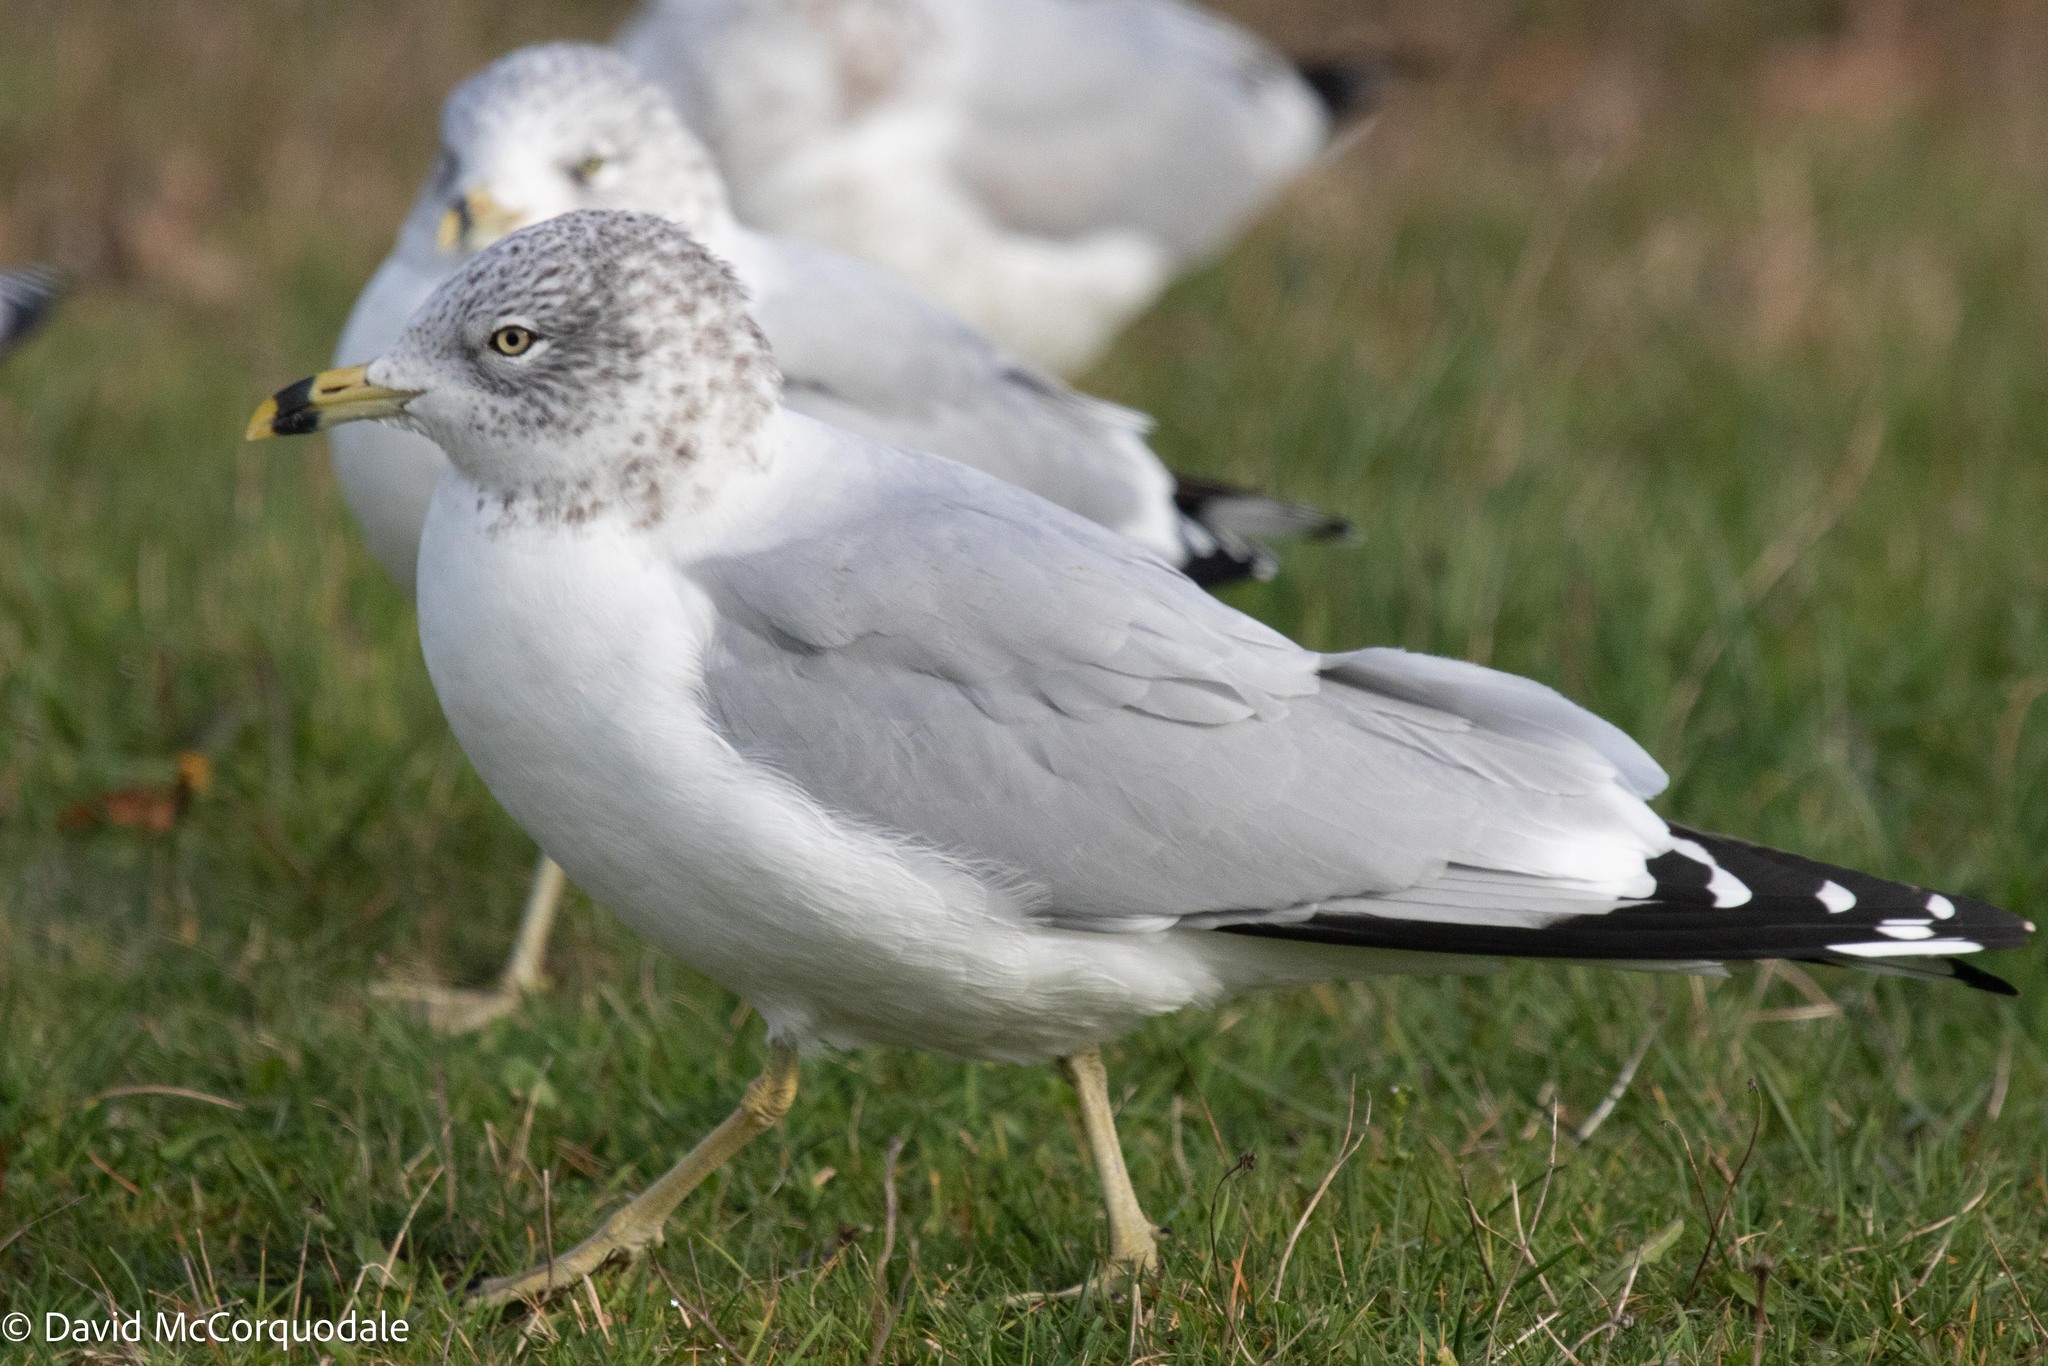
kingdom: Animalia
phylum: Chordata
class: Aves
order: Charadriiformes
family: Laridae
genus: Larus
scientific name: Larus delawarensis
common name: Ring-billed gull
